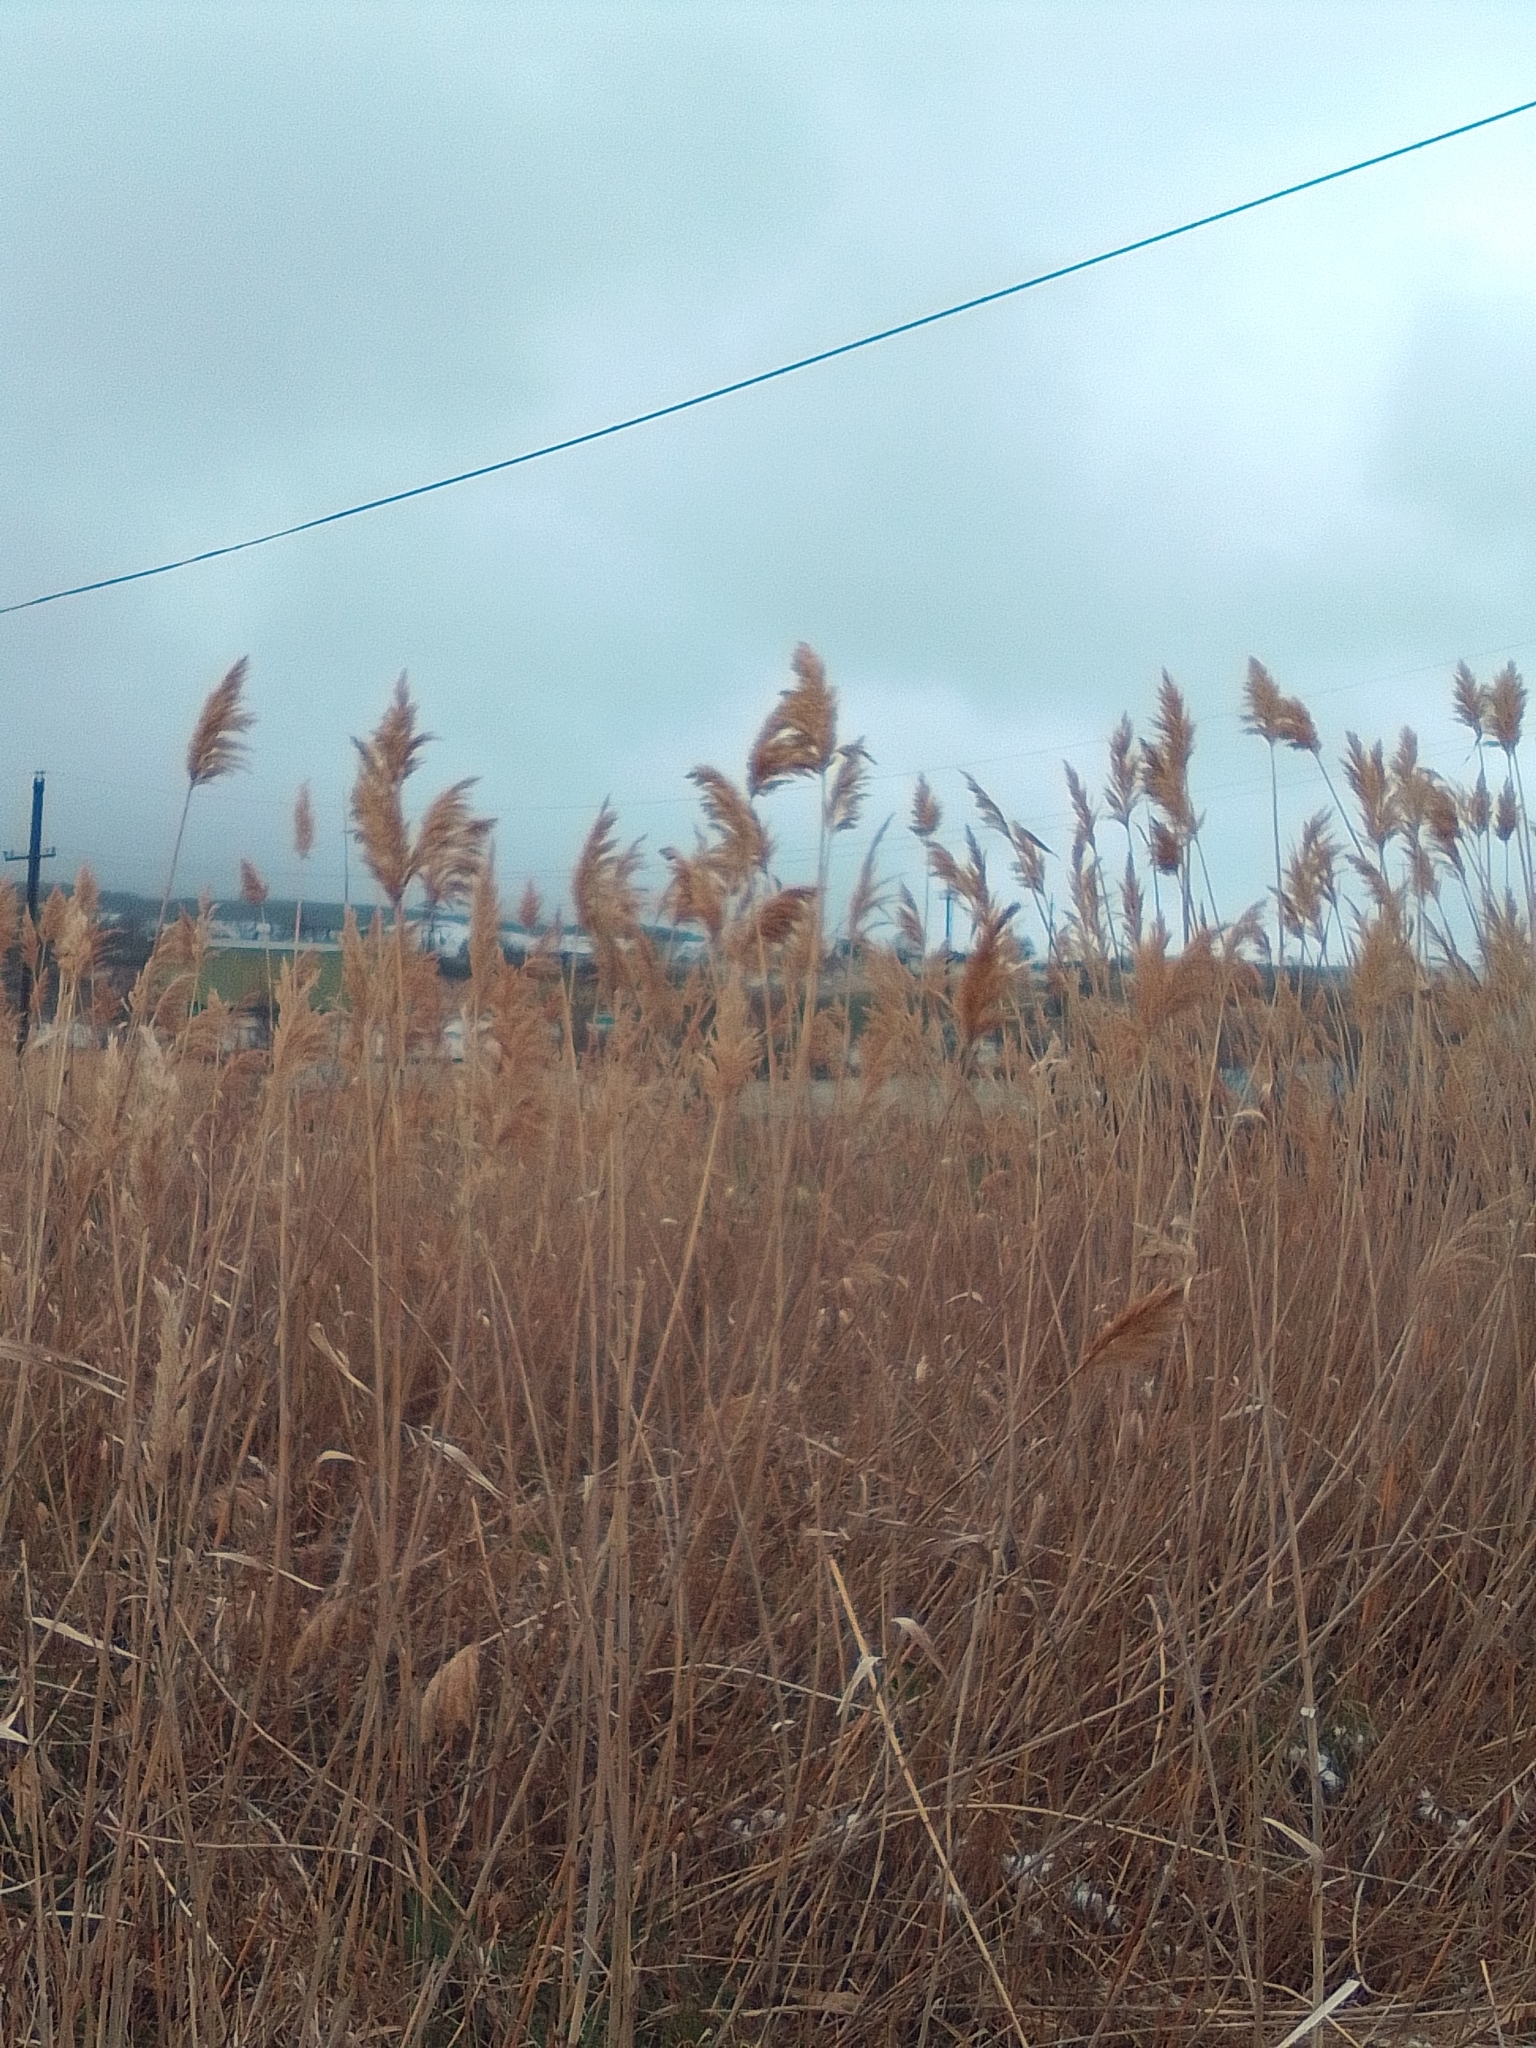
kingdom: Plantae
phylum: Tracheophyta
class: Liliopsida
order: Poales
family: Poaceae
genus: Phragmites
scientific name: Phragmites australis
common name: Common reed
